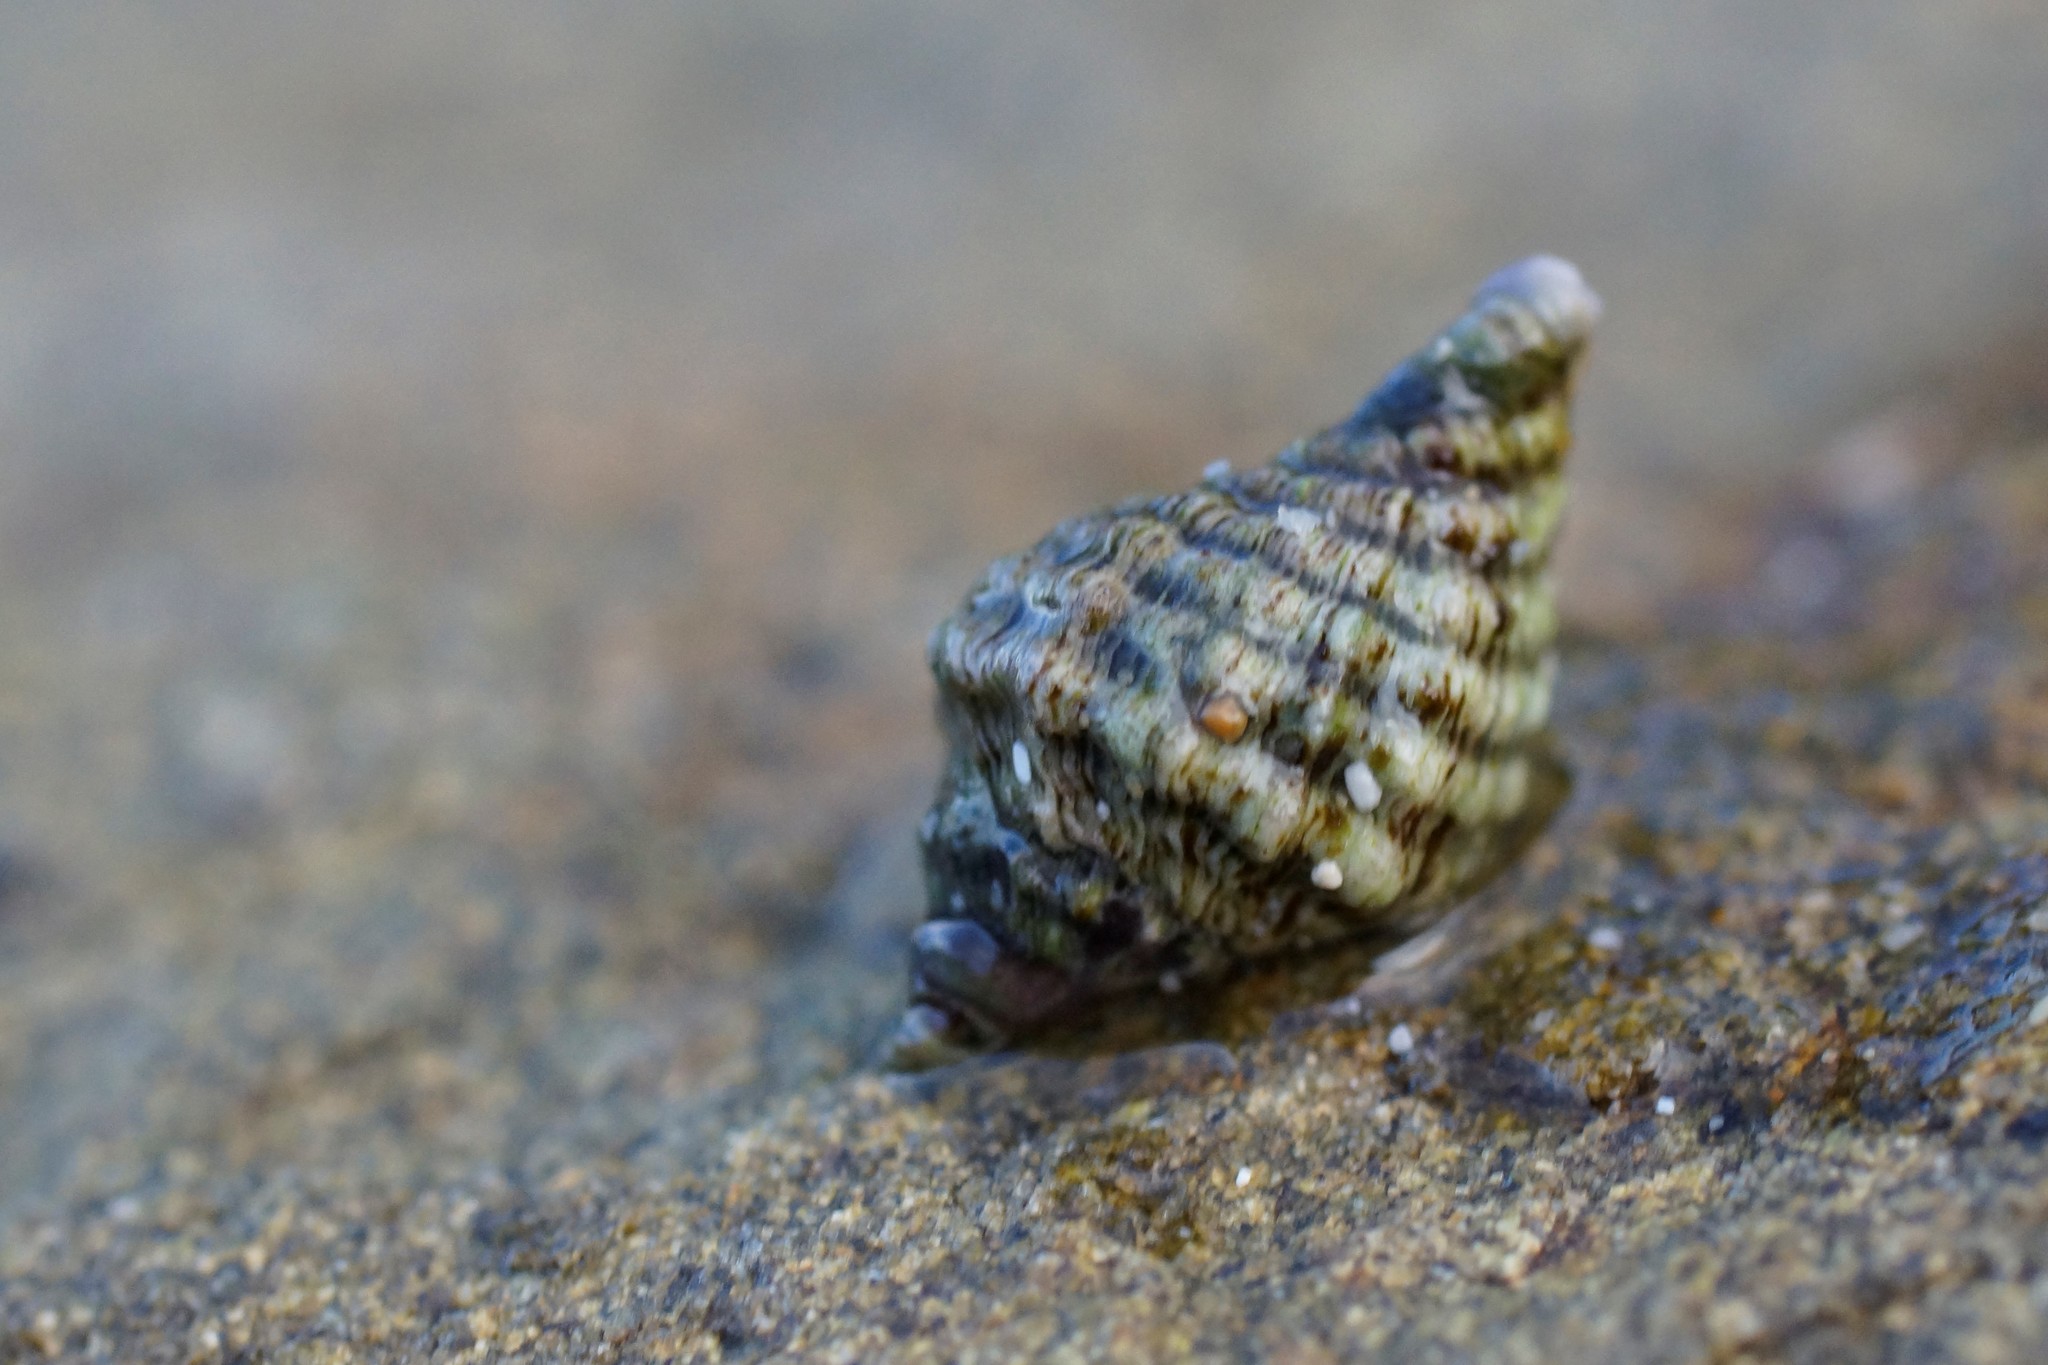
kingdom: Animalia
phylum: Mollusca
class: Gastropoda
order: Neogastropoda
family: Muricidae
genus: Bedeva
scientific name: Bedeva vinosa
